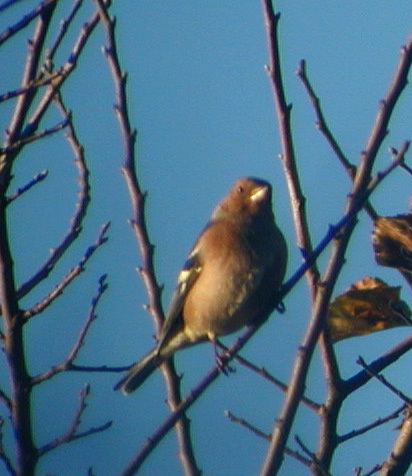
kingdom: Animalia
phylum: Chordata
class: Aves
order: Passeriformes
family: Fringillidae
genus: Fringilla
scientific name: Fringilla coelebs
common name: Common chaffinch
